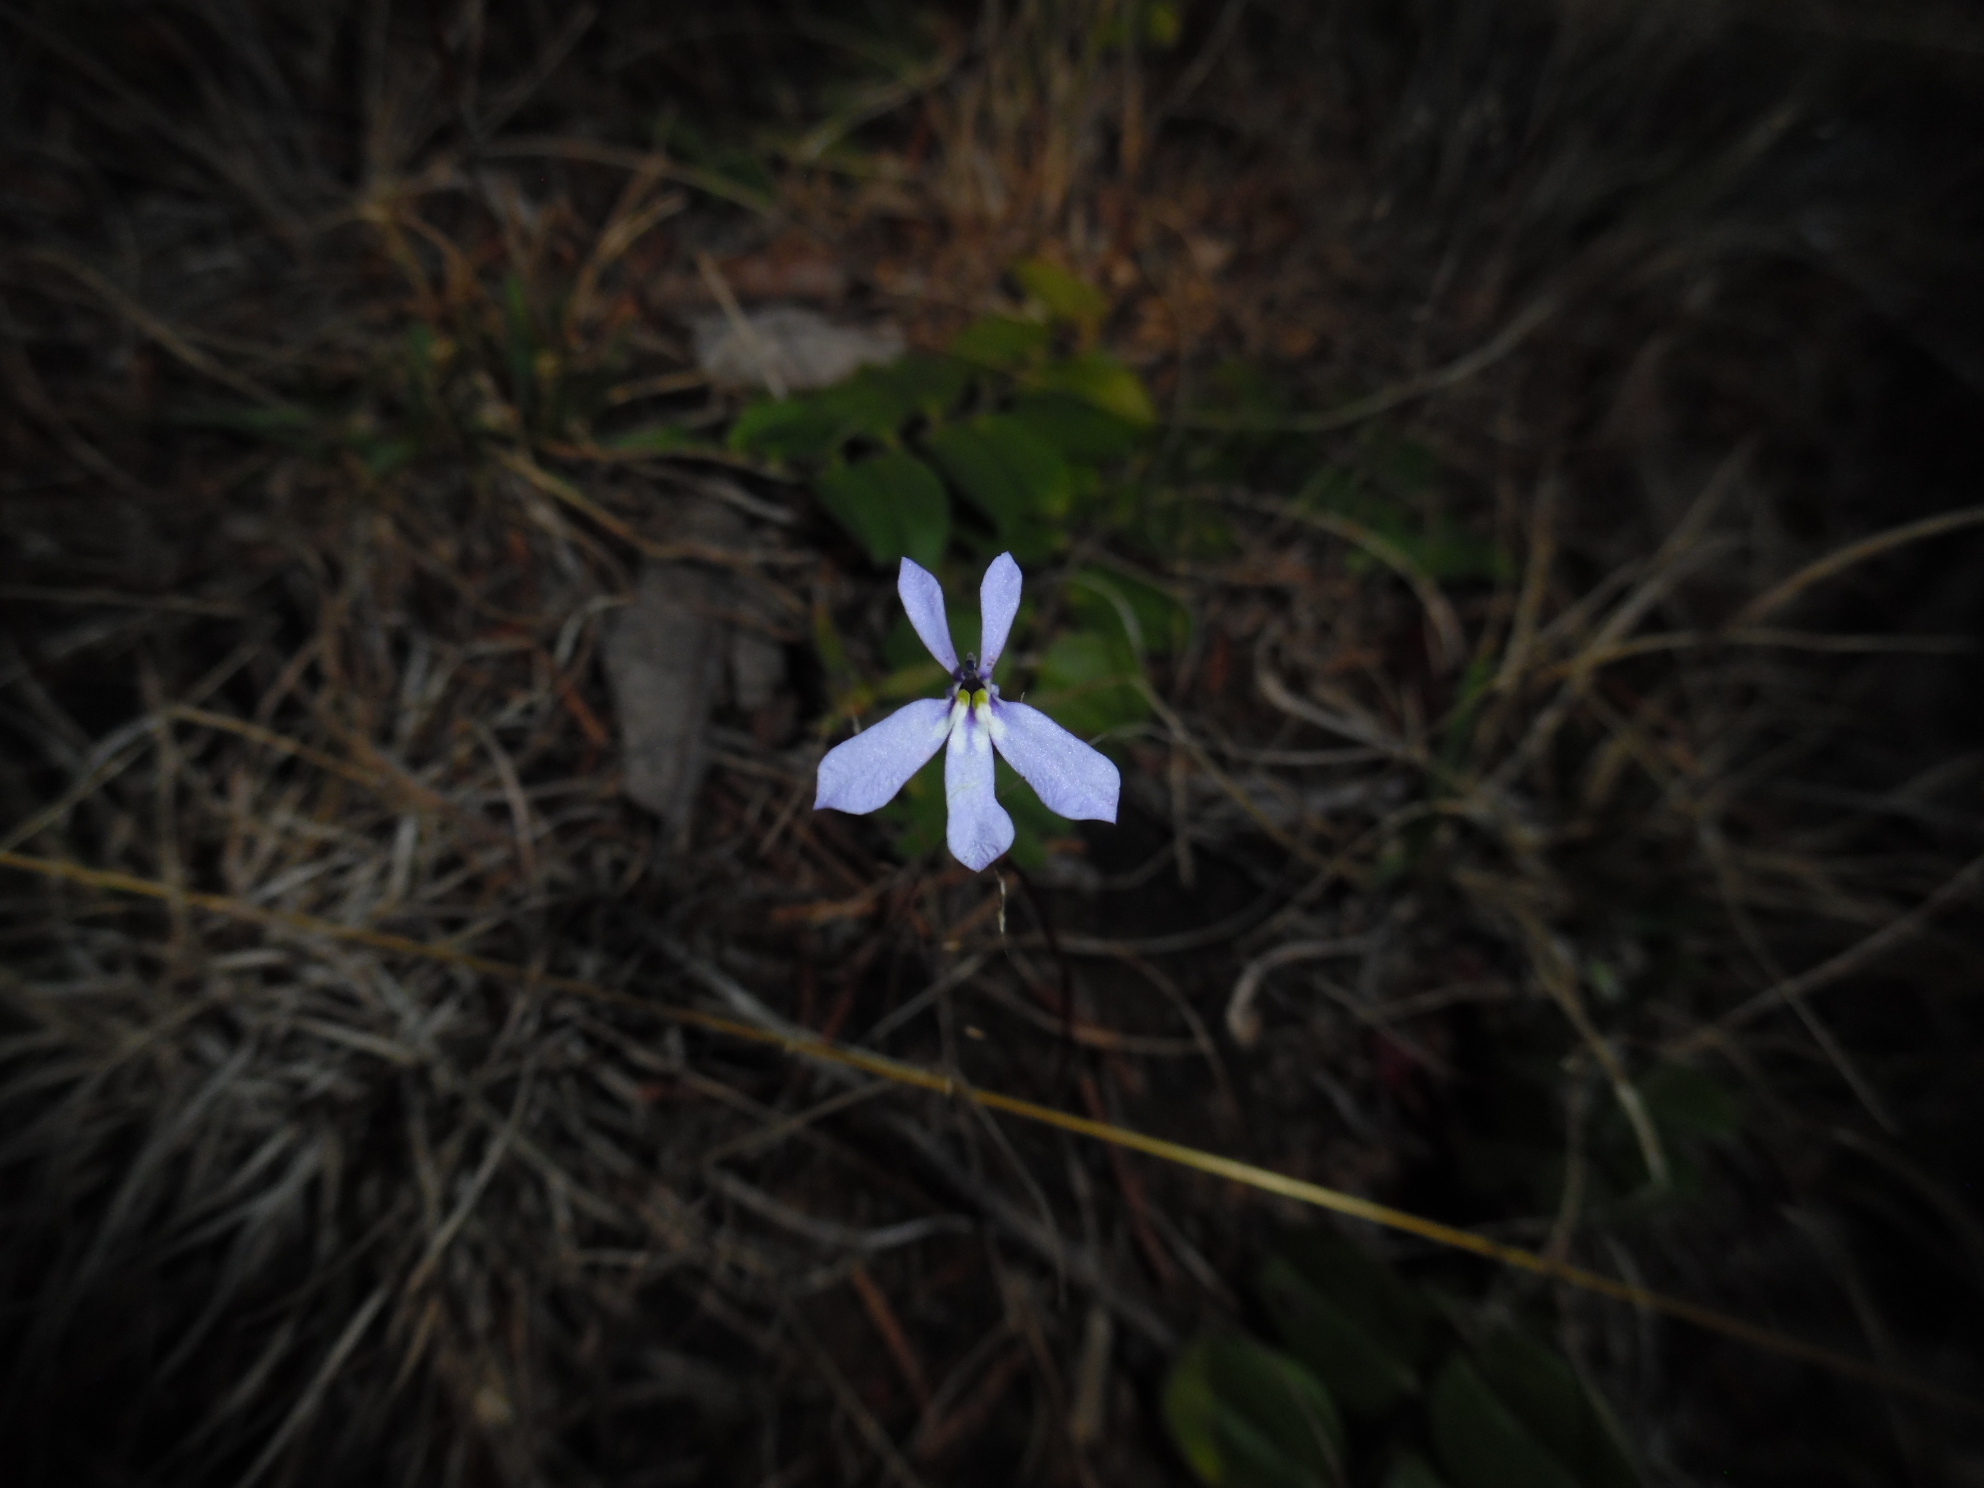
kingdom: Plantae
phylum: Tracheophyta
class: Magnoliopsida
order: Asterales
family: Campanulaceae
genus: Diastatea
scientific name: Diastatea tenera
